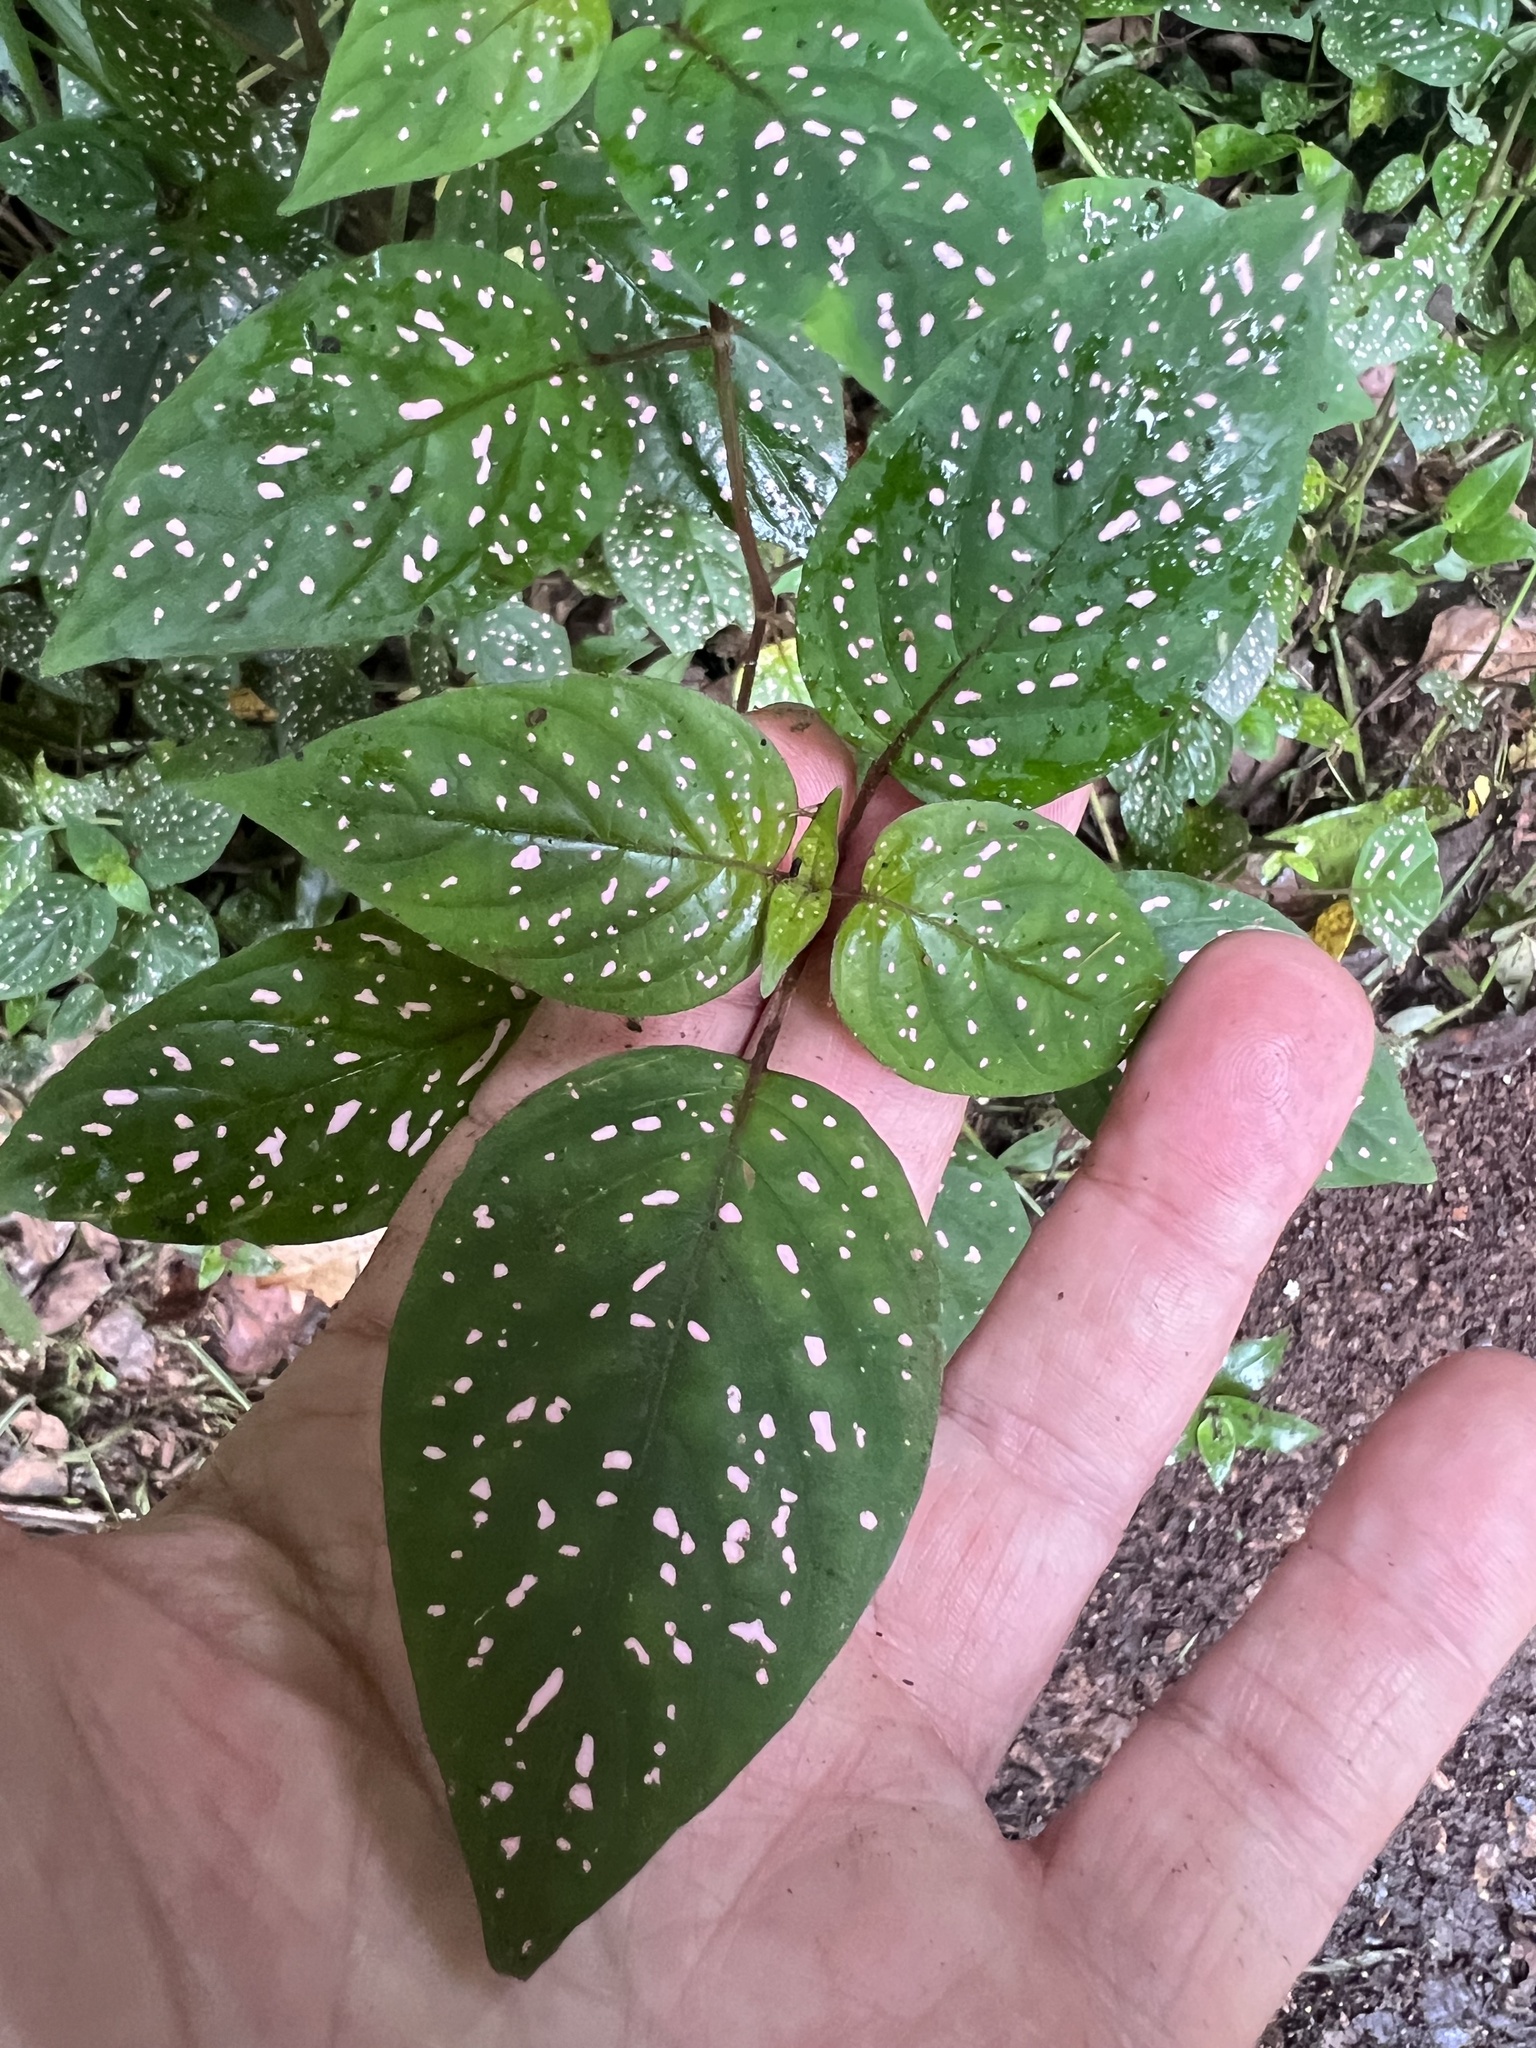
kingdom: Plantae
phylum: Tracheophyta
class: Magnoliopsida
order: Lamiales
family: Acanthaceae
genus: Hypoestes
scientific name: Hypoestes phyllostachya
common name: Polkadot-plant
